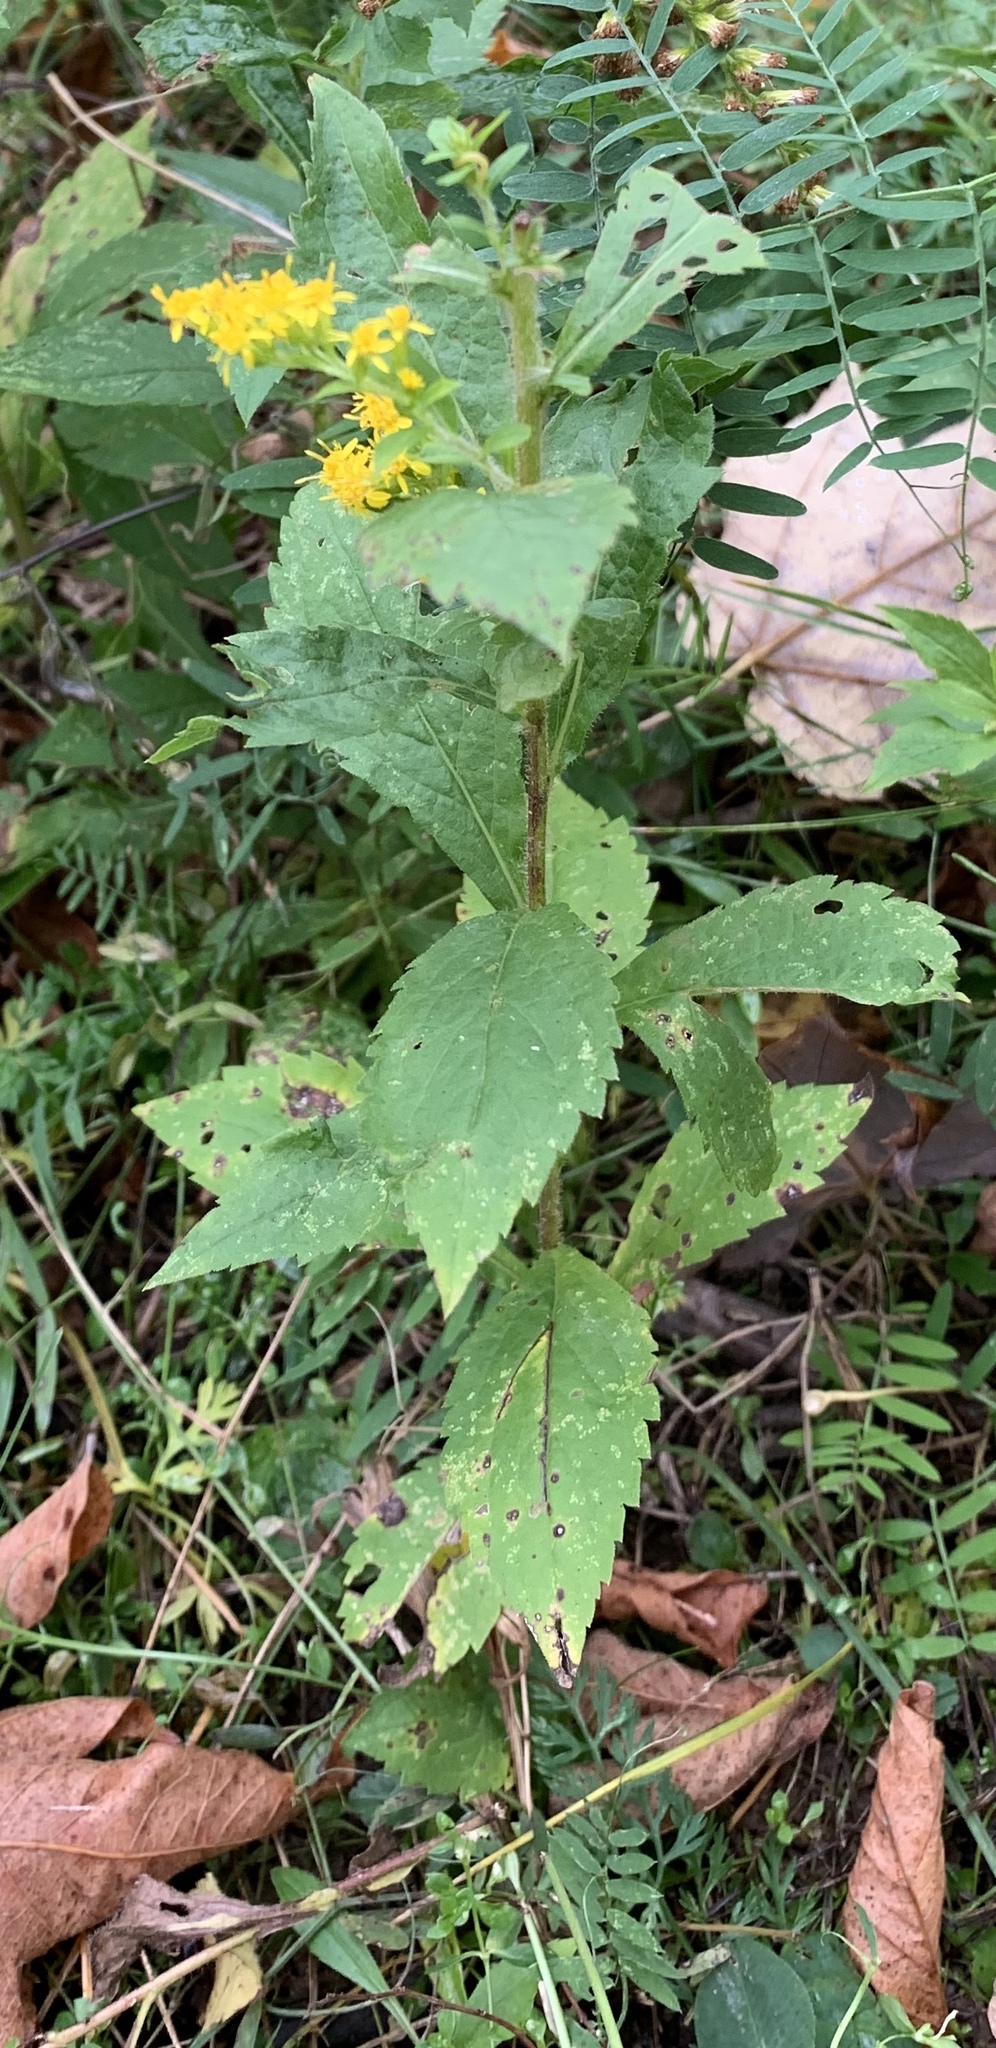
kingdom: Plantae
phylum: Tracheophyta
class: Magnoliopsida
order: Asterales
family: Asteraceae
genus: Solidago
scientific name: Solidago rugosa
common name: Rough-stemmed goldenrod
